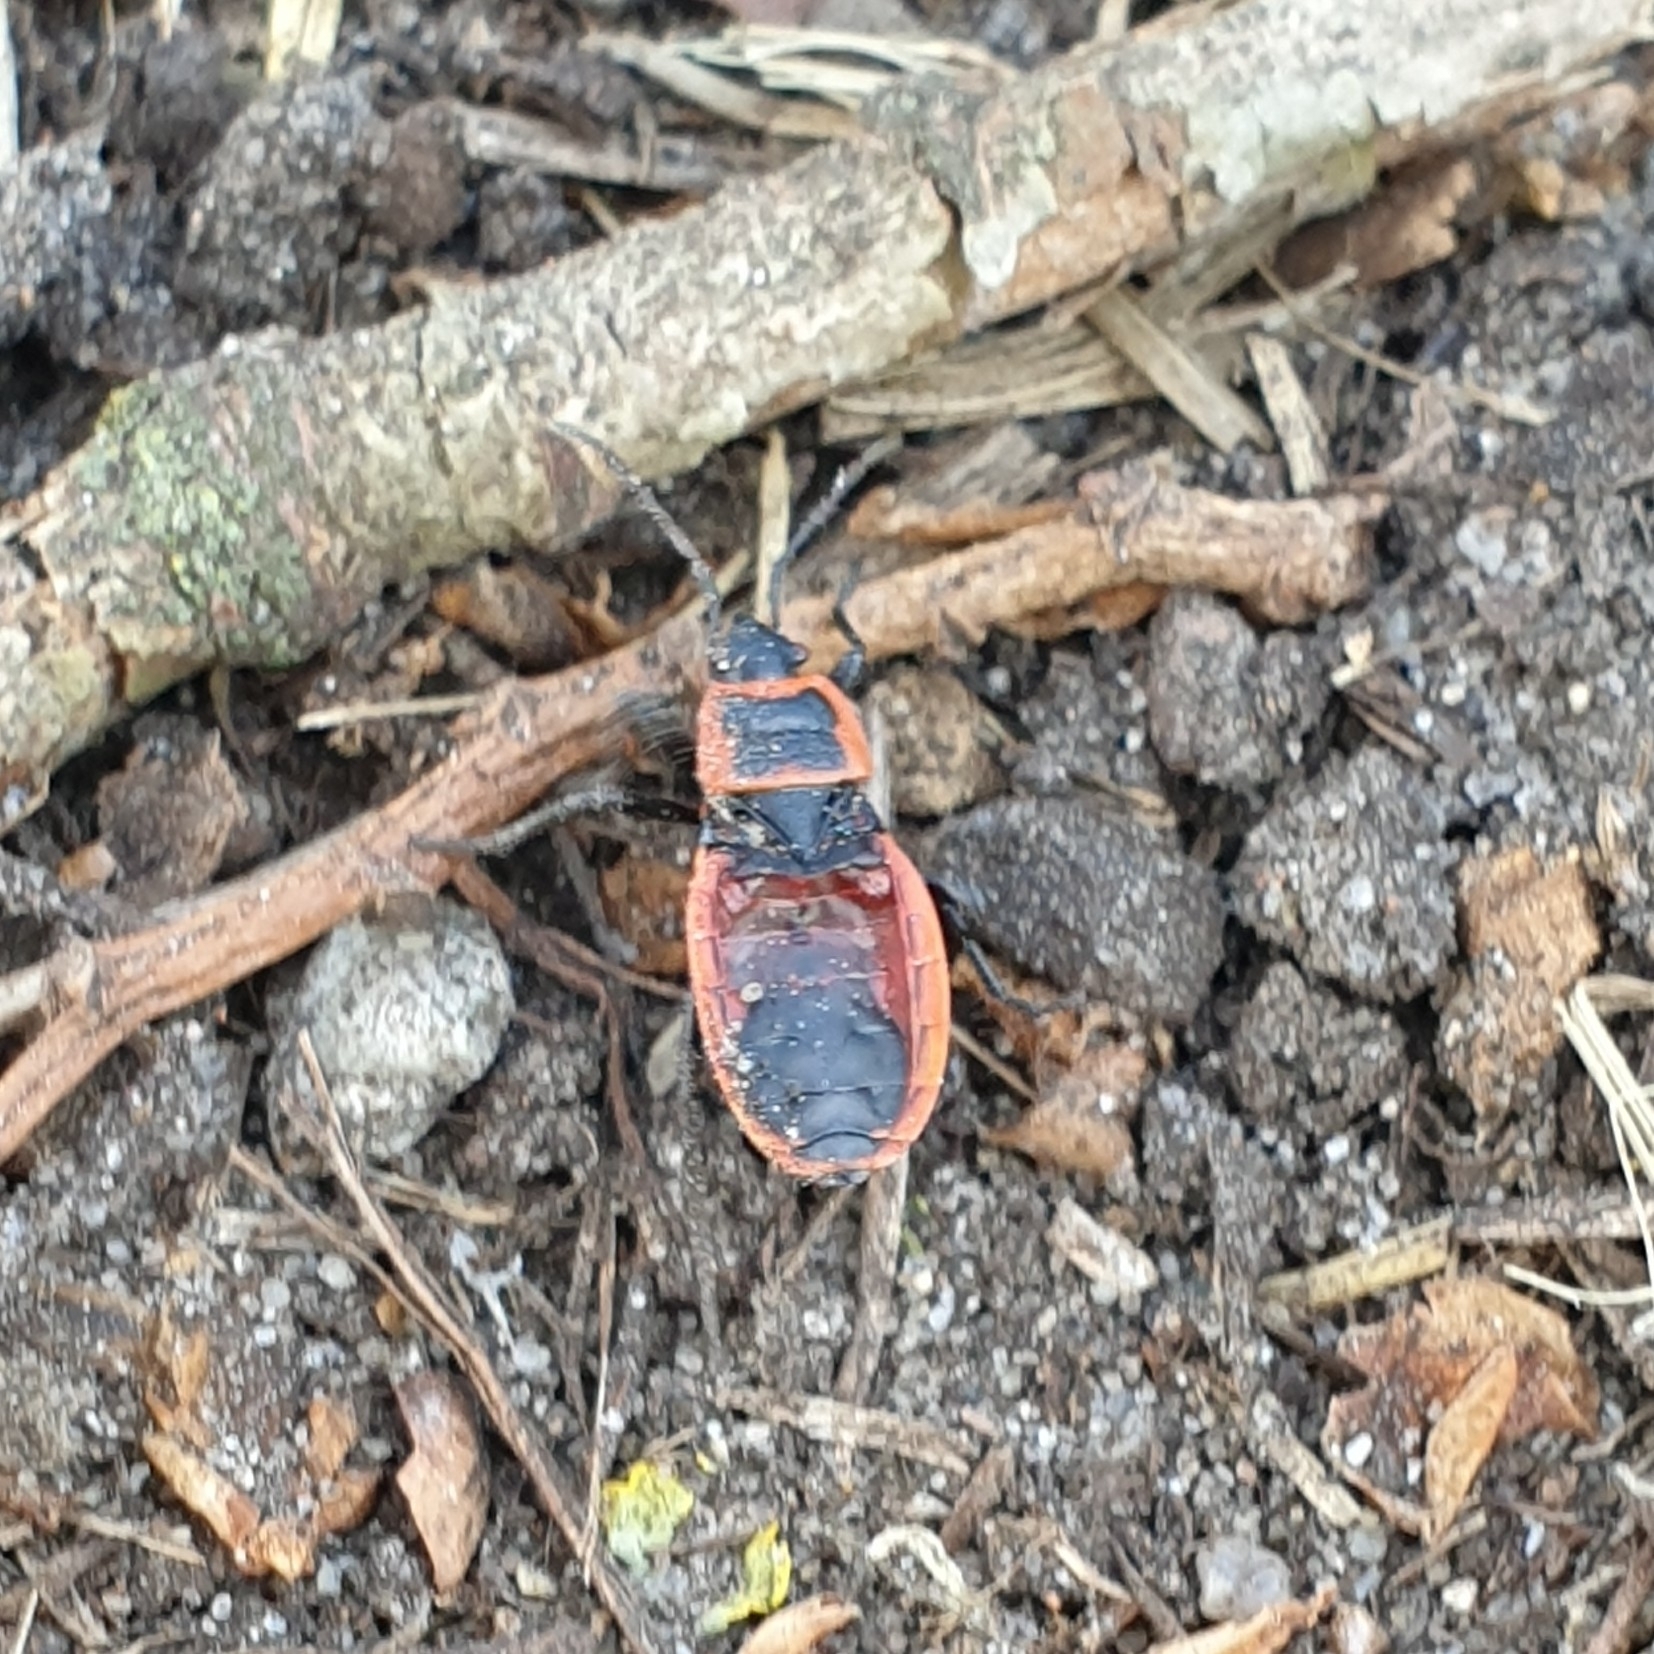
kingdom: Animalia
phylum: Arthropoda
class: Insecta
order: Hemiptera
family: Pyrrhocoridae
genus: Pyrrhocoris
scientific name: Pyrrhocoris apterus
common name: Firebug
